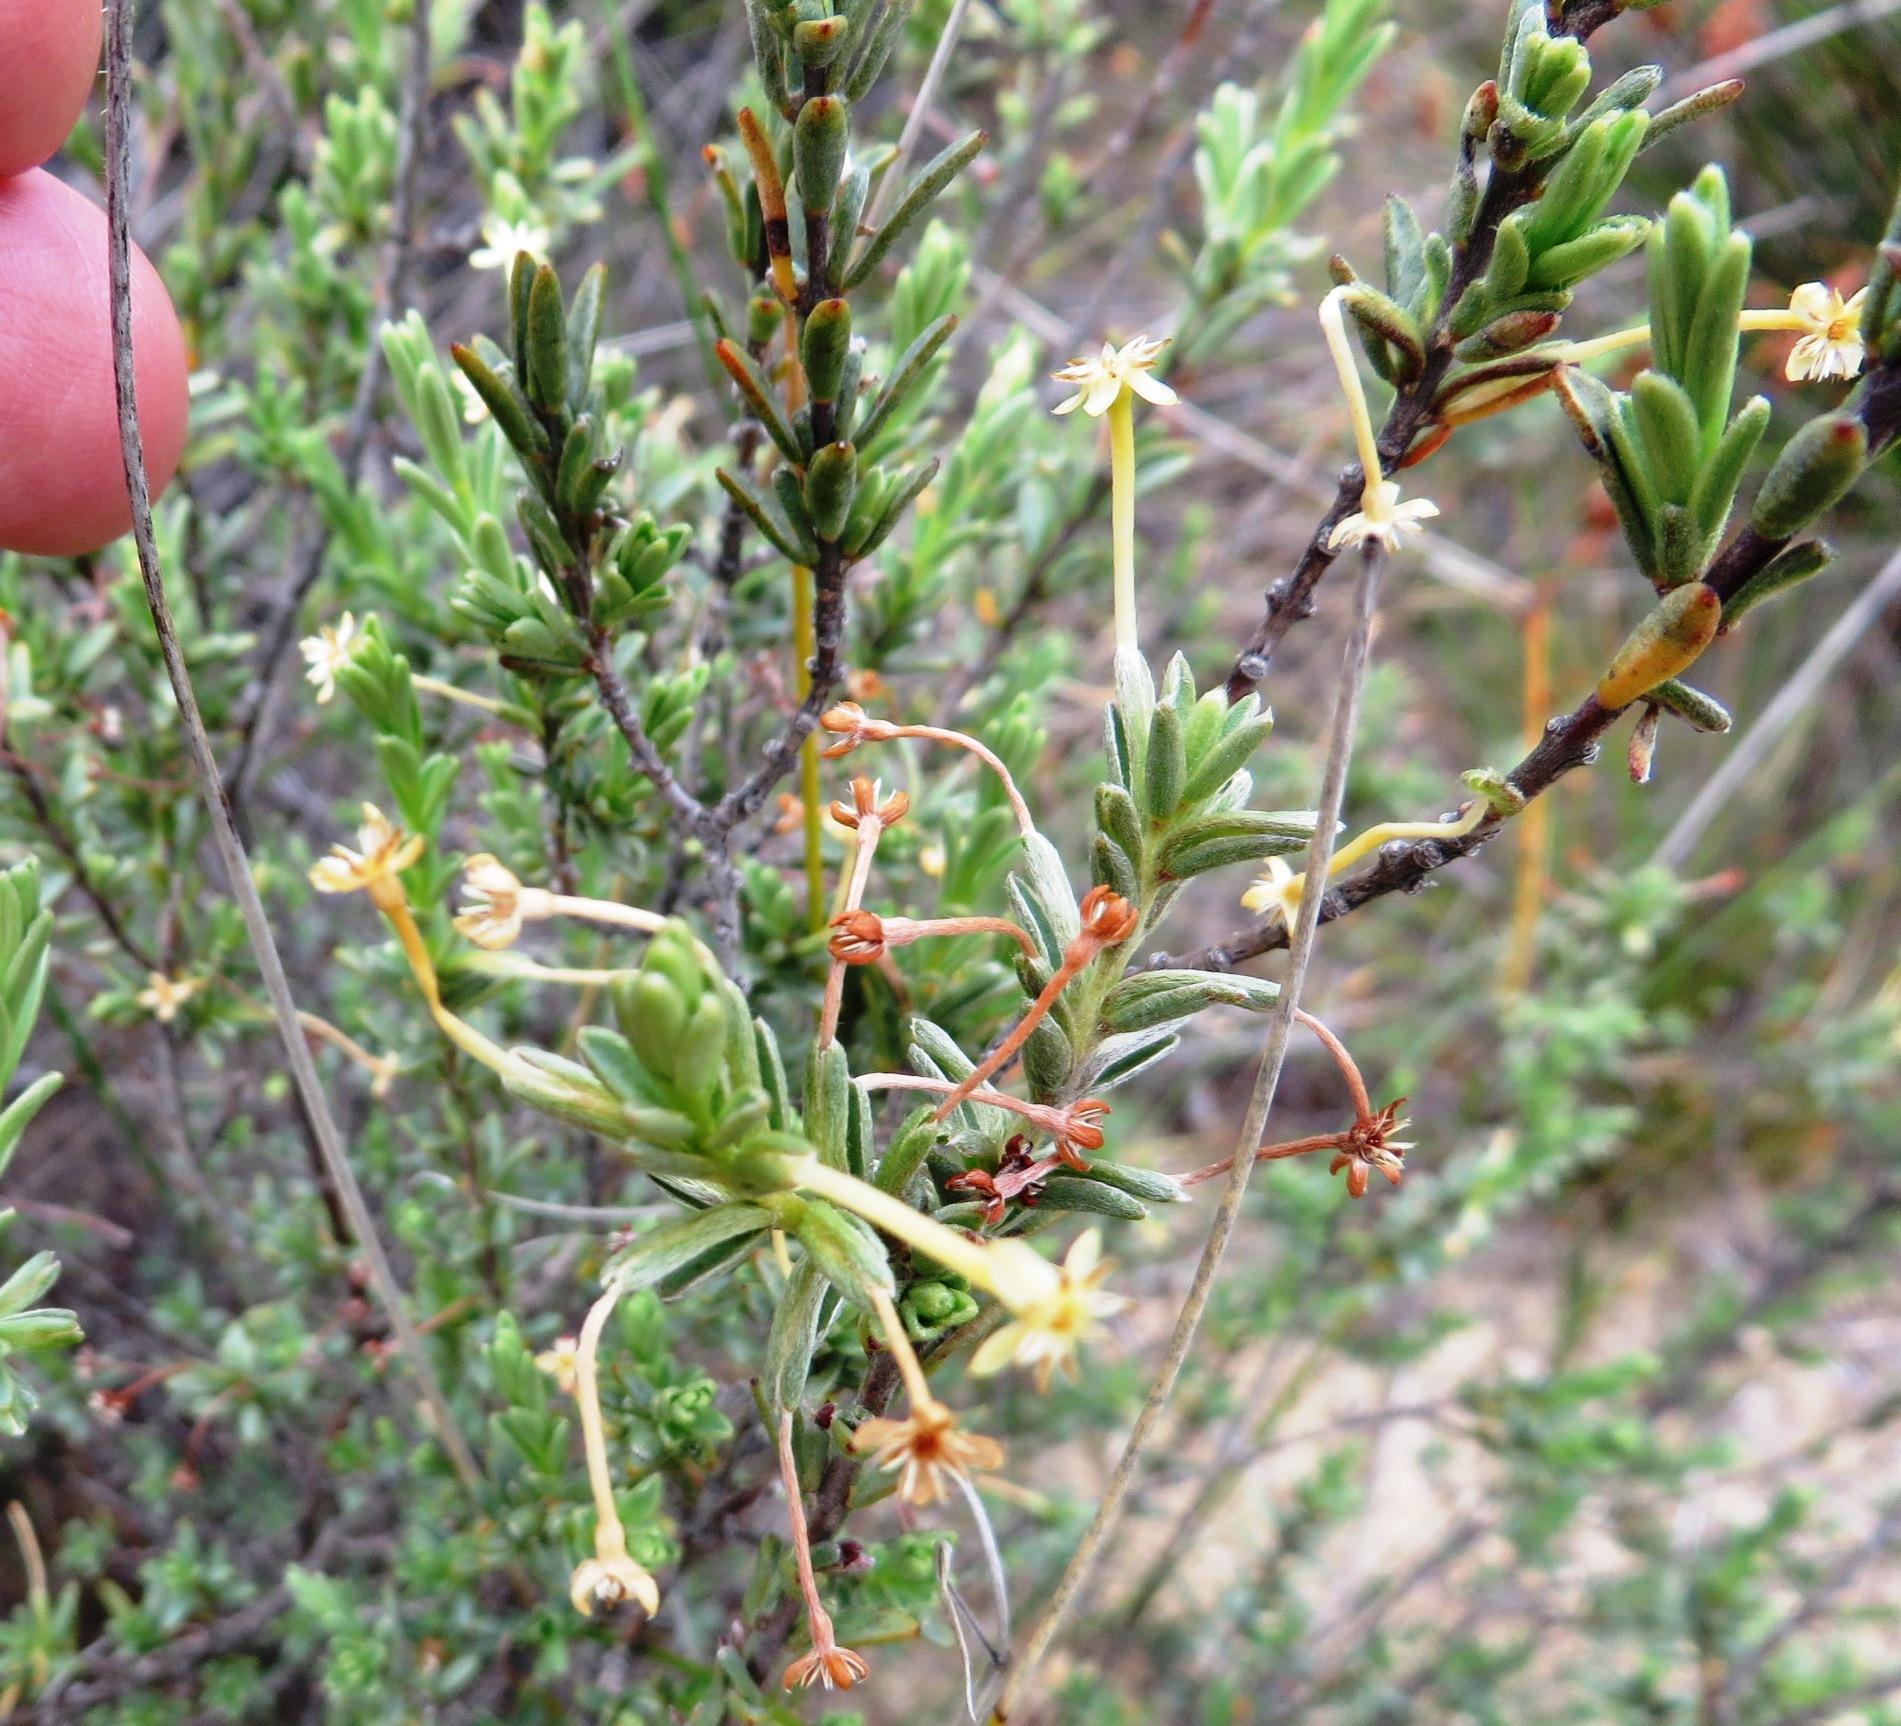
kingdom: Plantae
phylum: Tracheophyta
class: Magnoliopsida
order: Malvales
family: Thymelaeaceae
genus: Gnidia
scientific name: Gnidia leipoldtii
